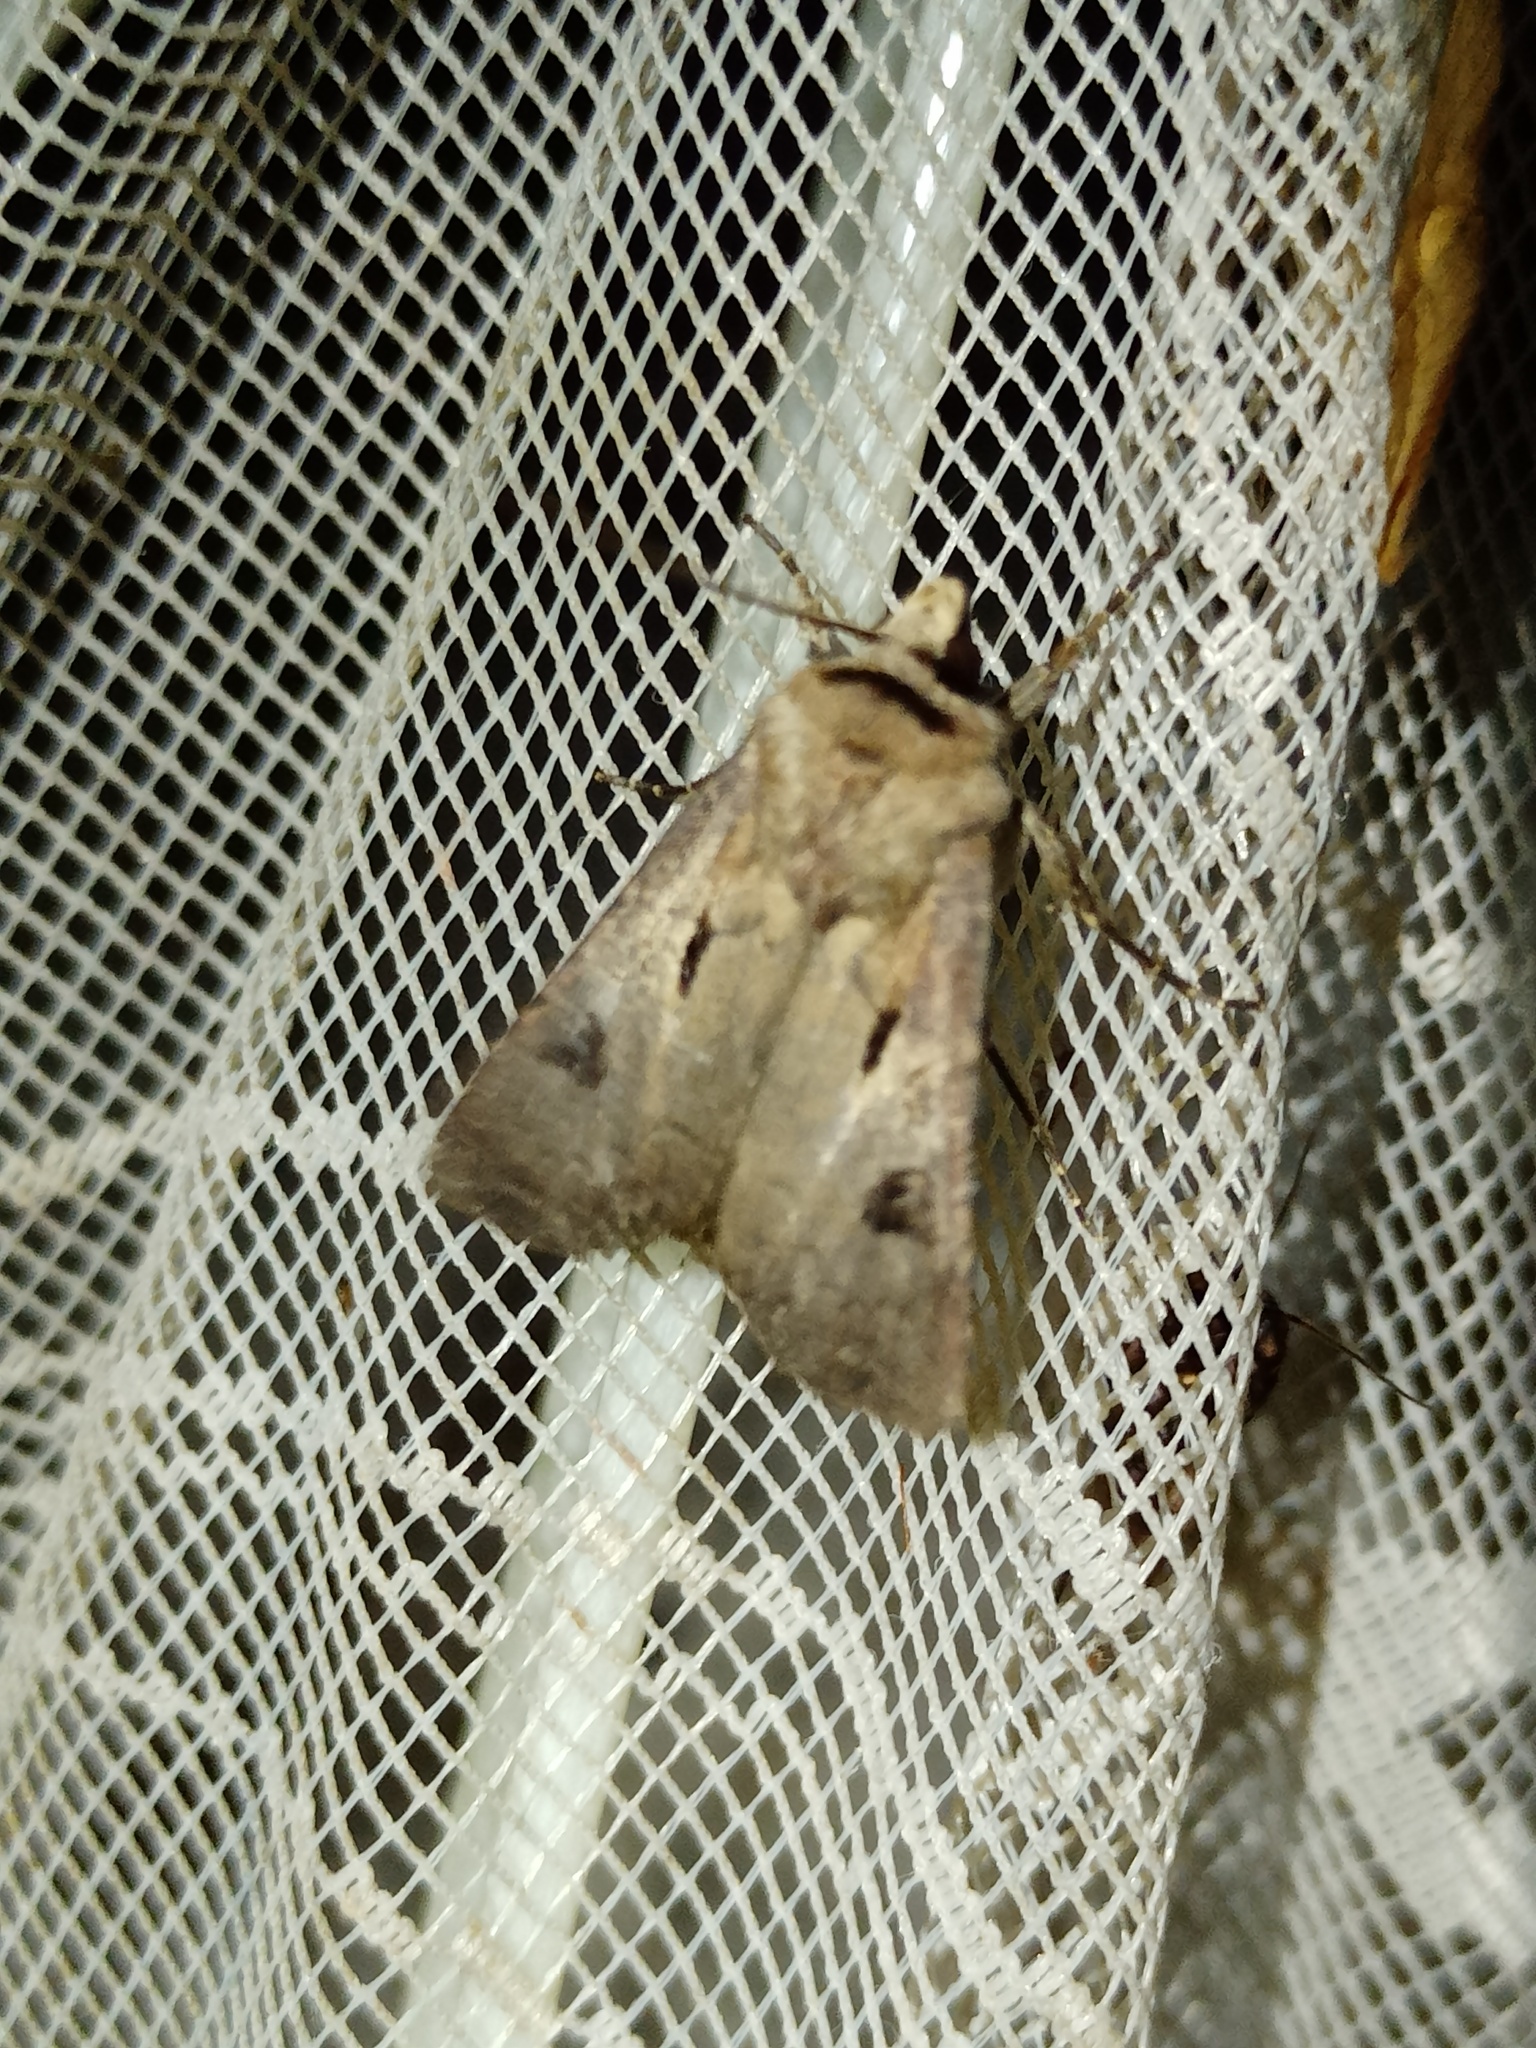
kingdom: Animalia
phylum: Arthropoda
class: Insecta
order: Lepidoptera
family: Noctuidae
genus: Agrotis
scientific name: Agrotis exclamationis
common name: Heart and dart
